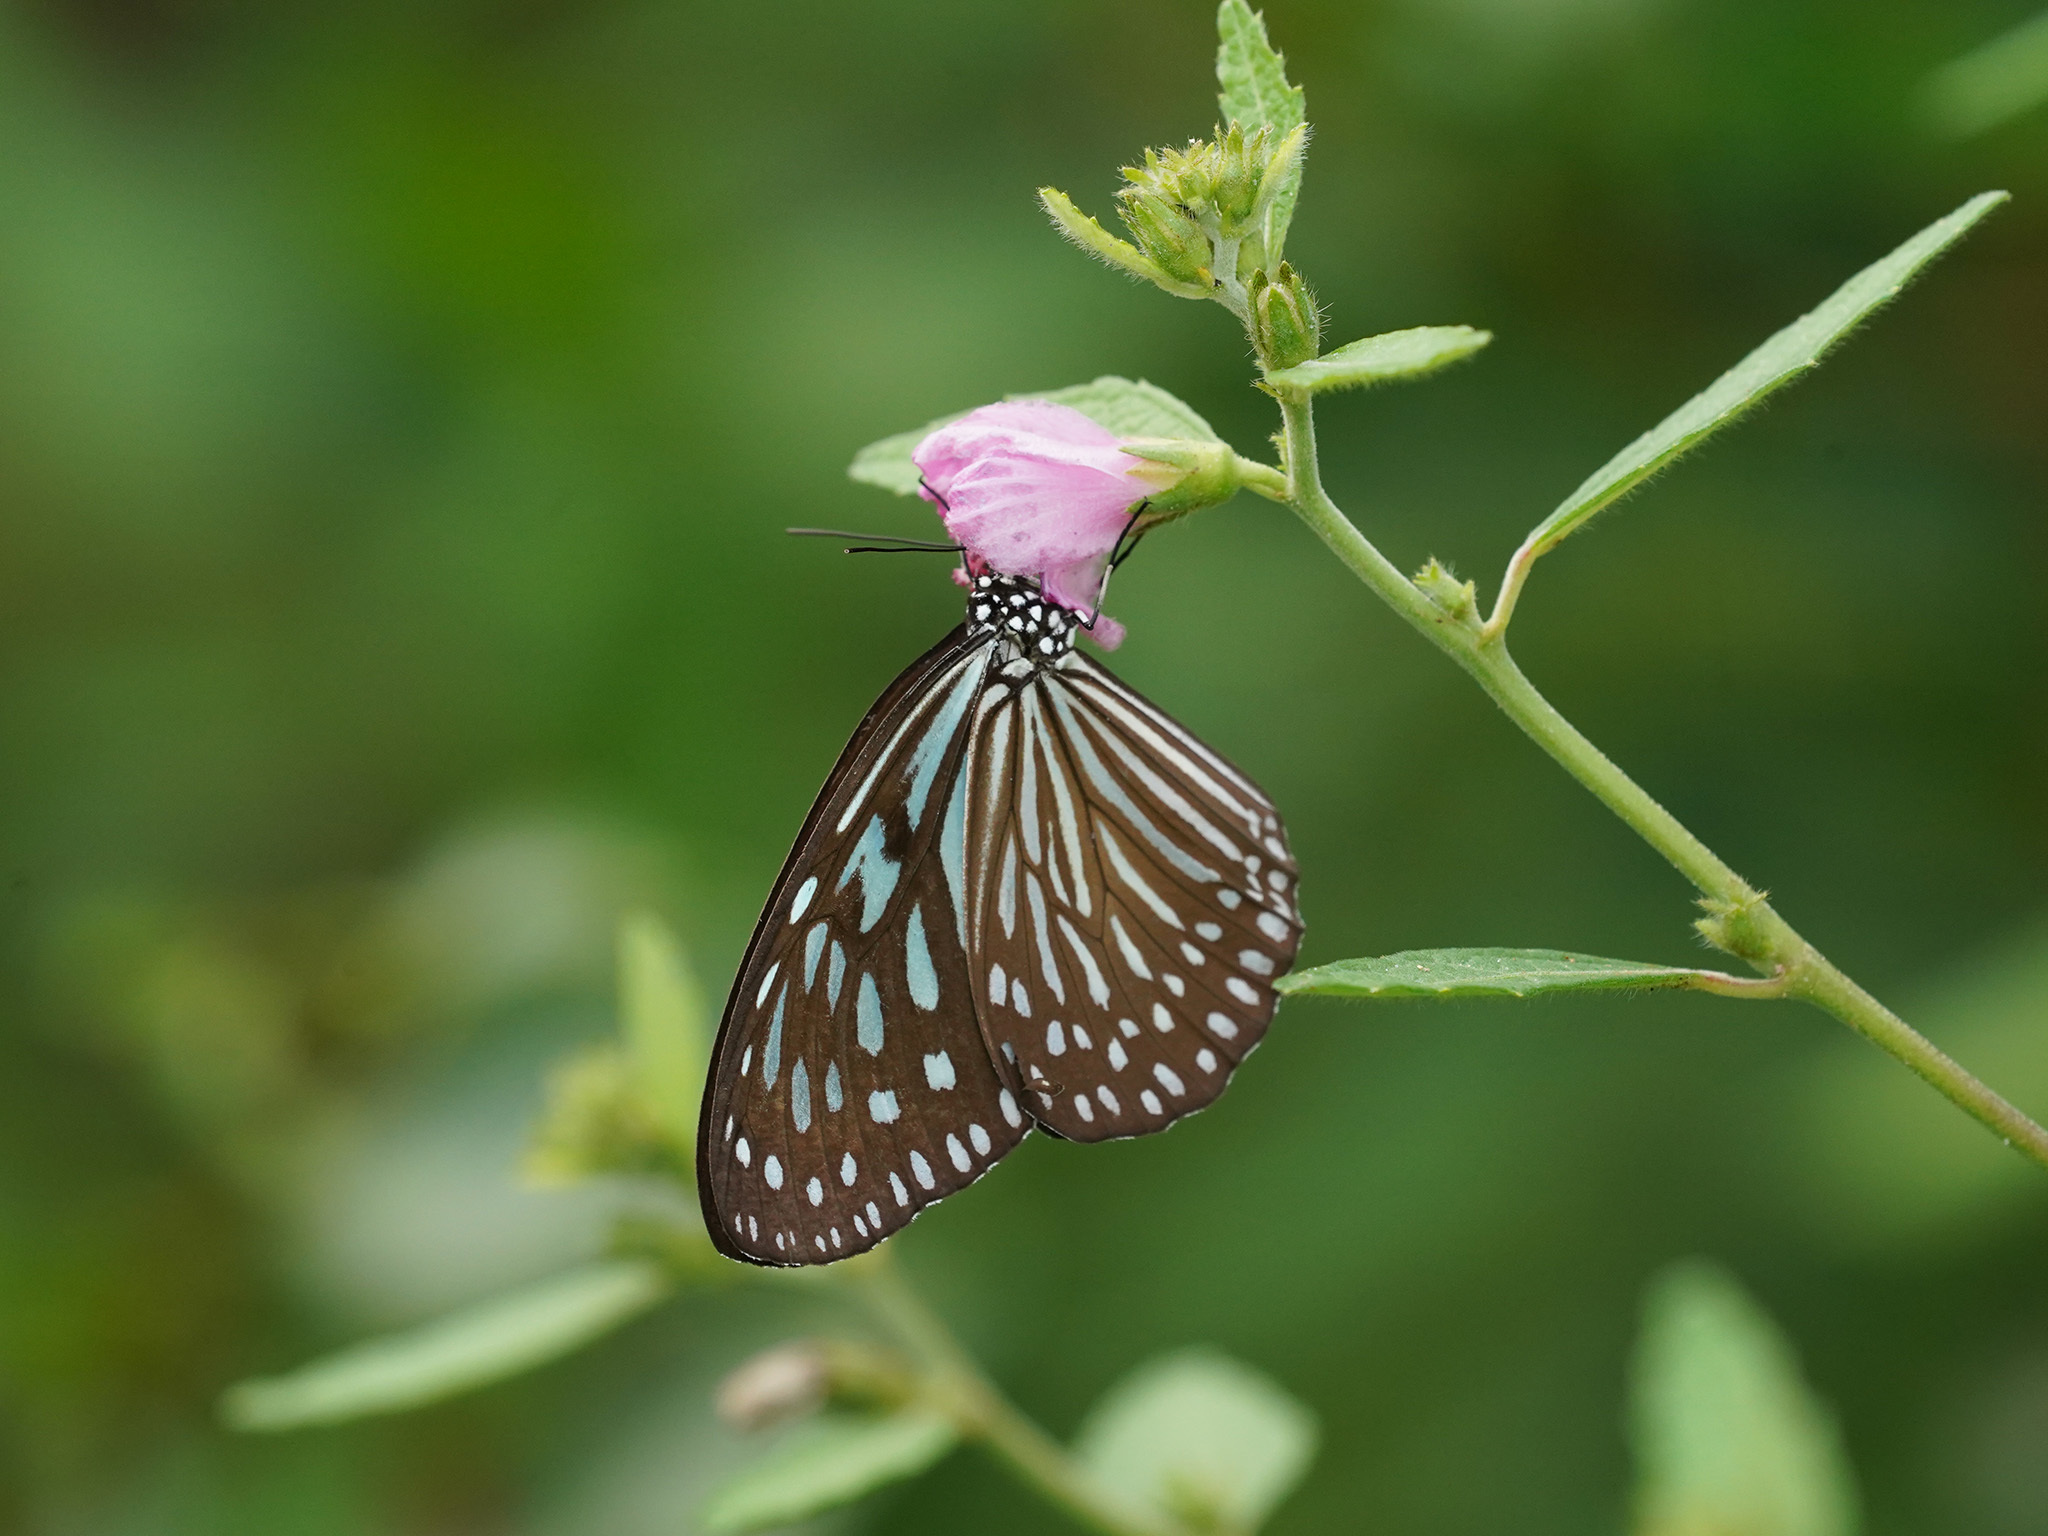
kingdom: Animalia
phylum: Arthropoda
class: Insecta
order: Lepidoptera
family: Nymphalidae
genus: Ideopsis
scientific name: Ideopsis vulgaris
